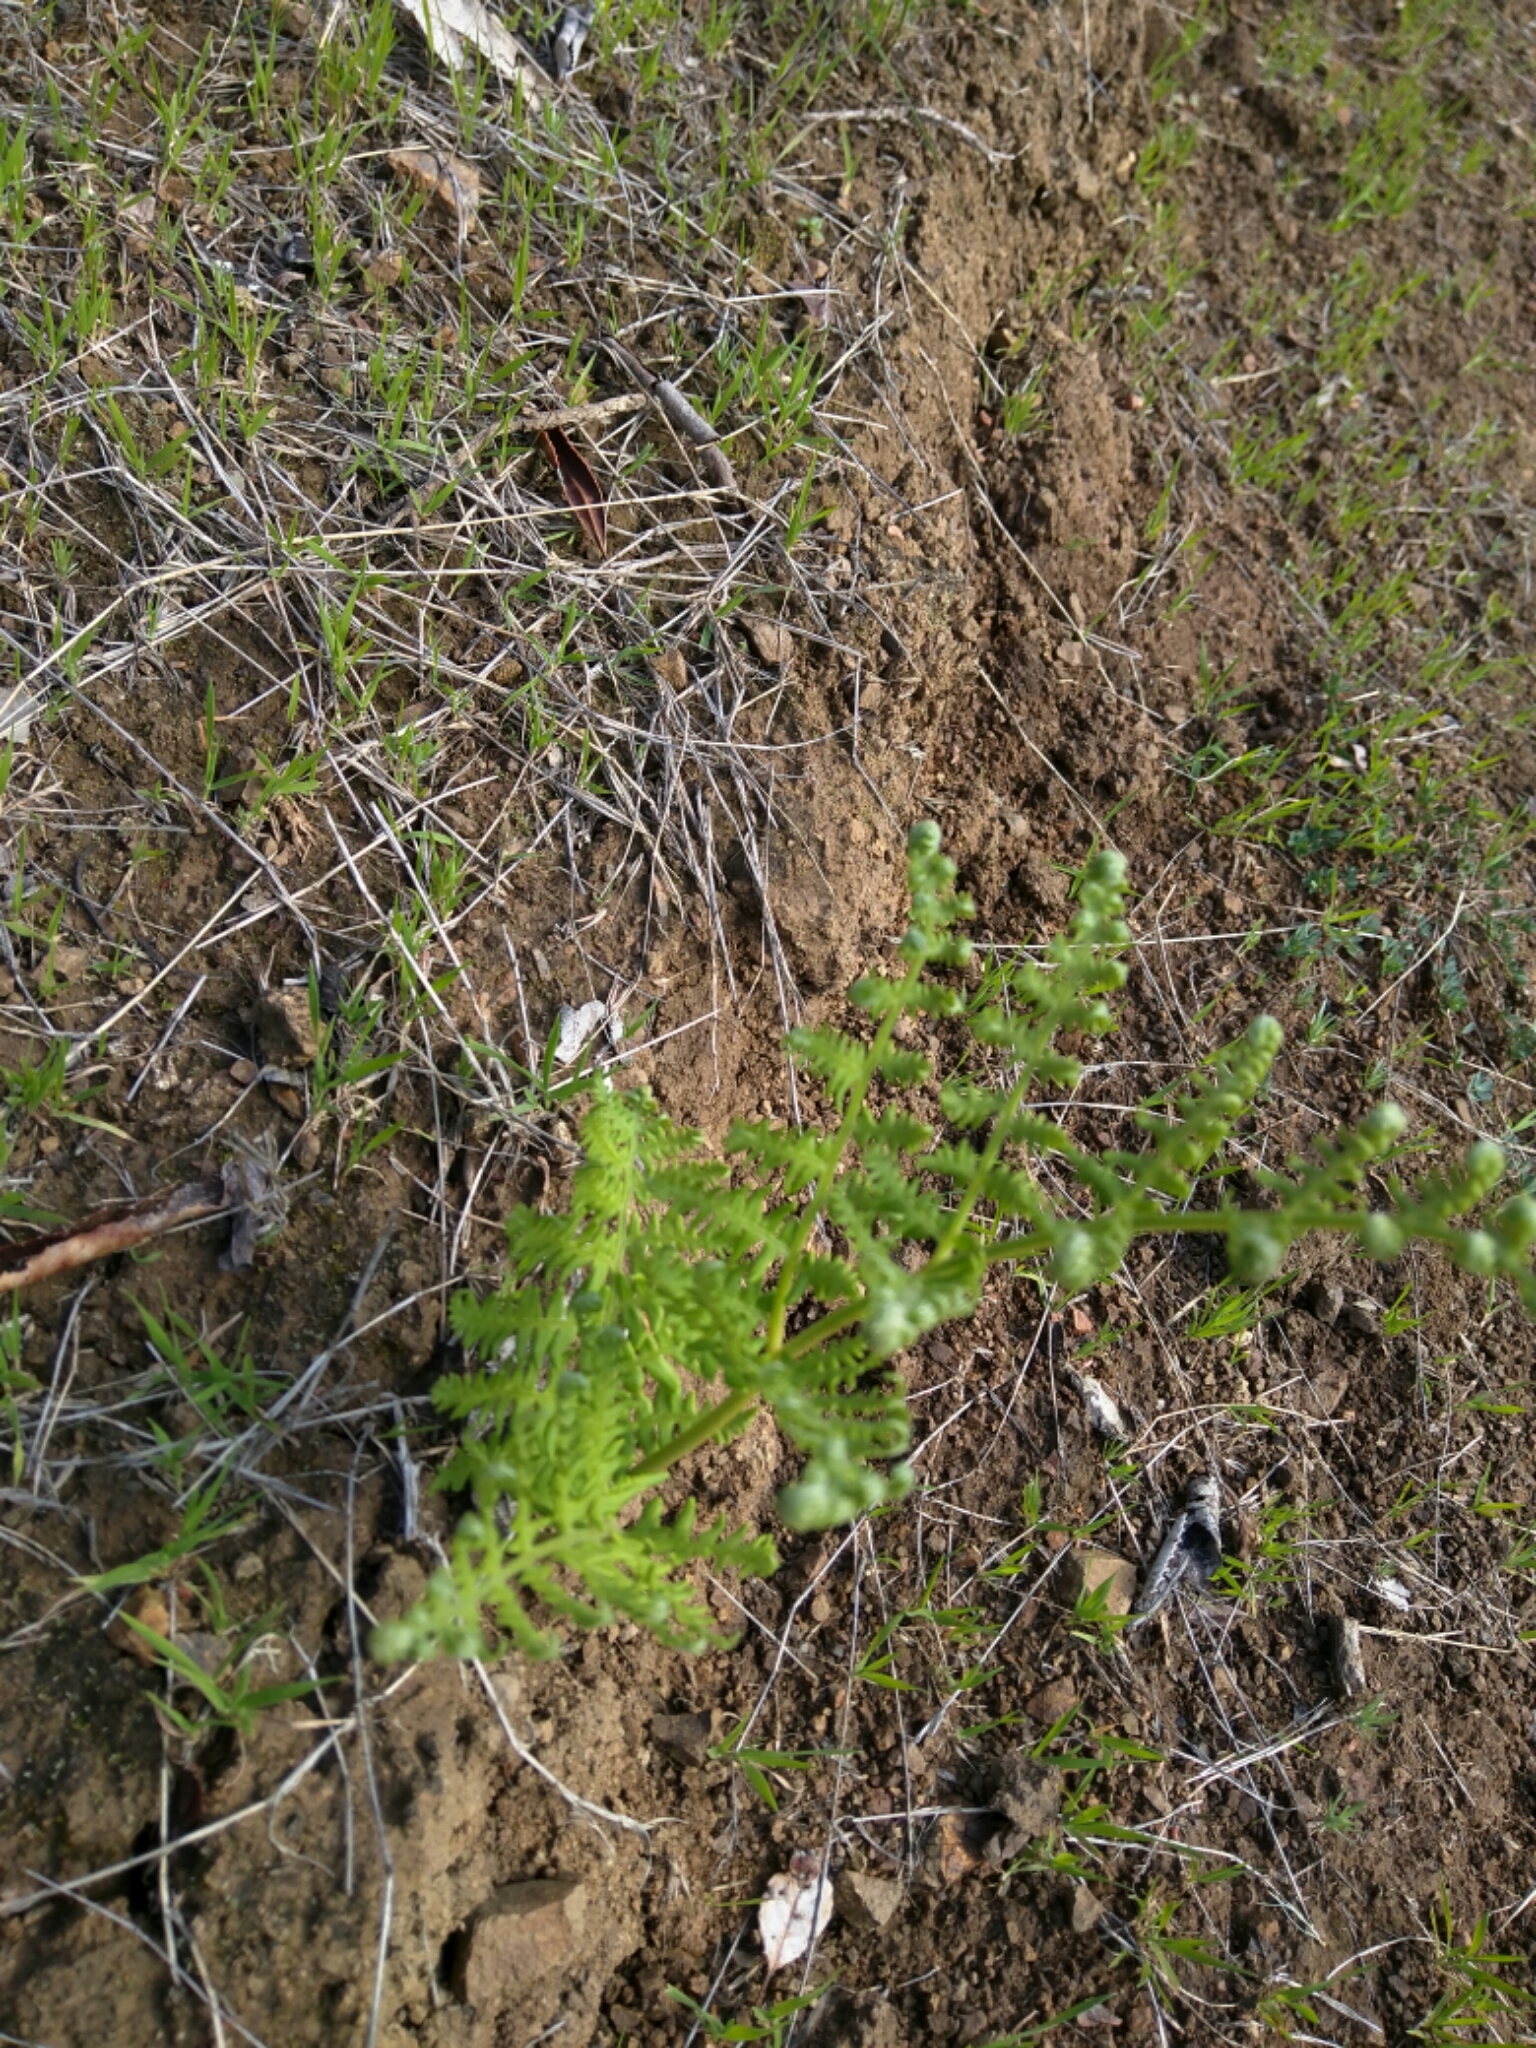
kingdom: Plantae
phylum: Tracheophyta
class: Polypodiopsida
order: Polypodiales
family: Dennstaedtiaceae
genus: Pteridium
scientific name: Pteridium aquilinum
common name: Bracken
